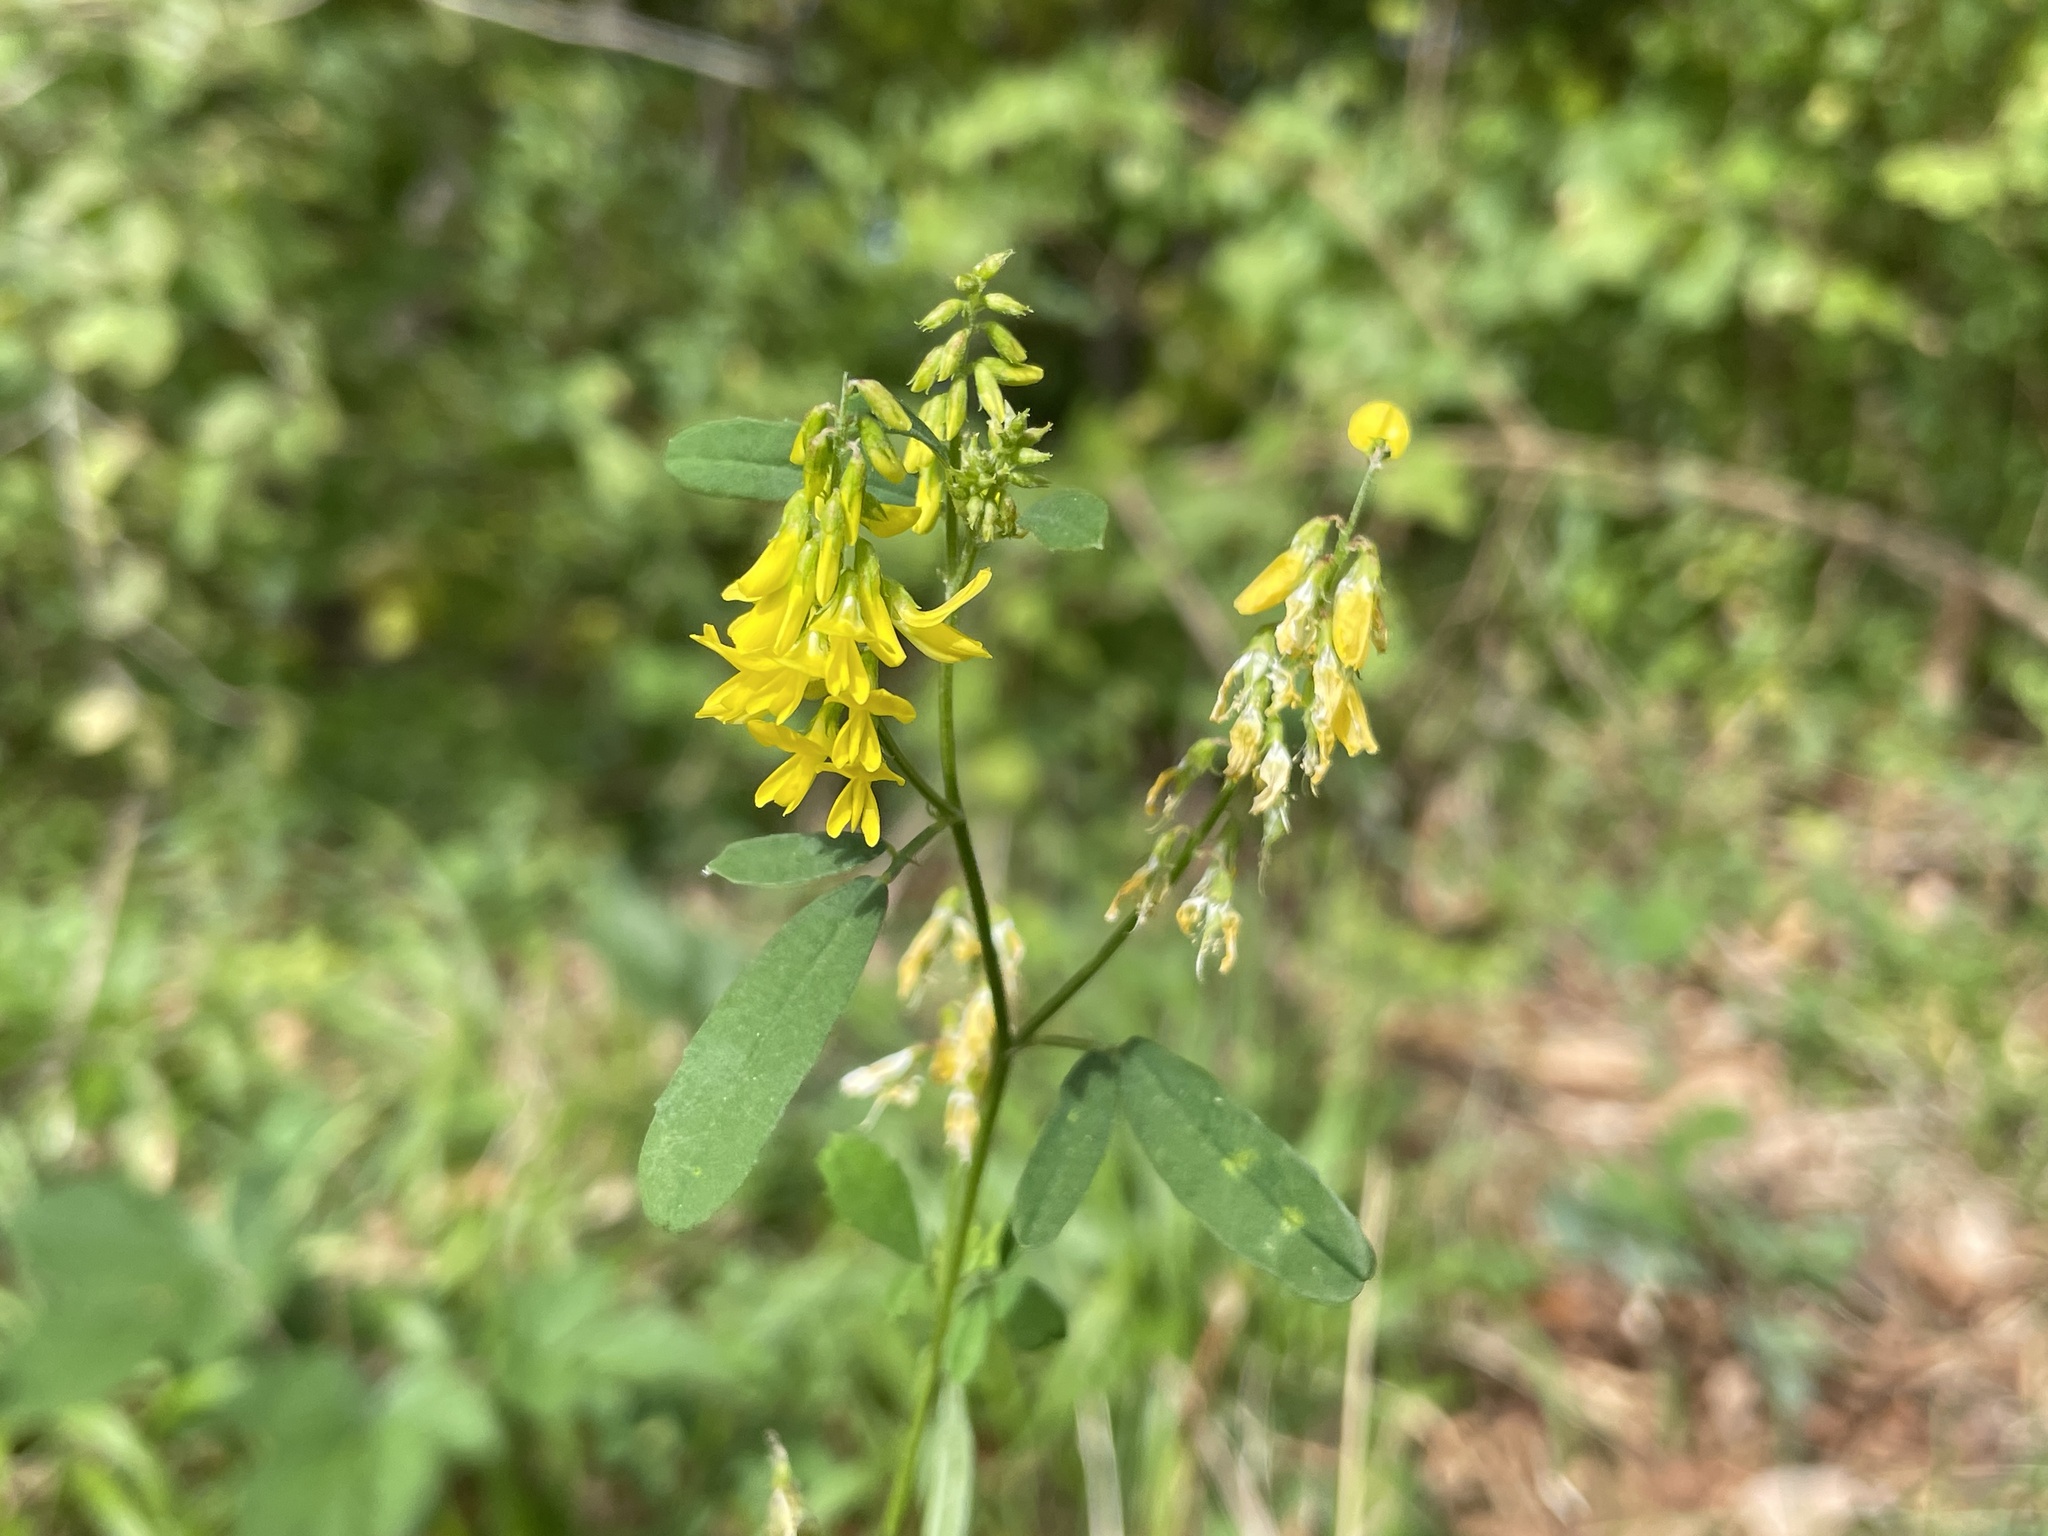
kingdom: Plantae
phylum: Tracheophyta
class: Magnoliopsida
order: Fabales
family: Fabaceae
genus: Melilotus
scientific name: Melilotus officinalis
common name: Sweetclover
